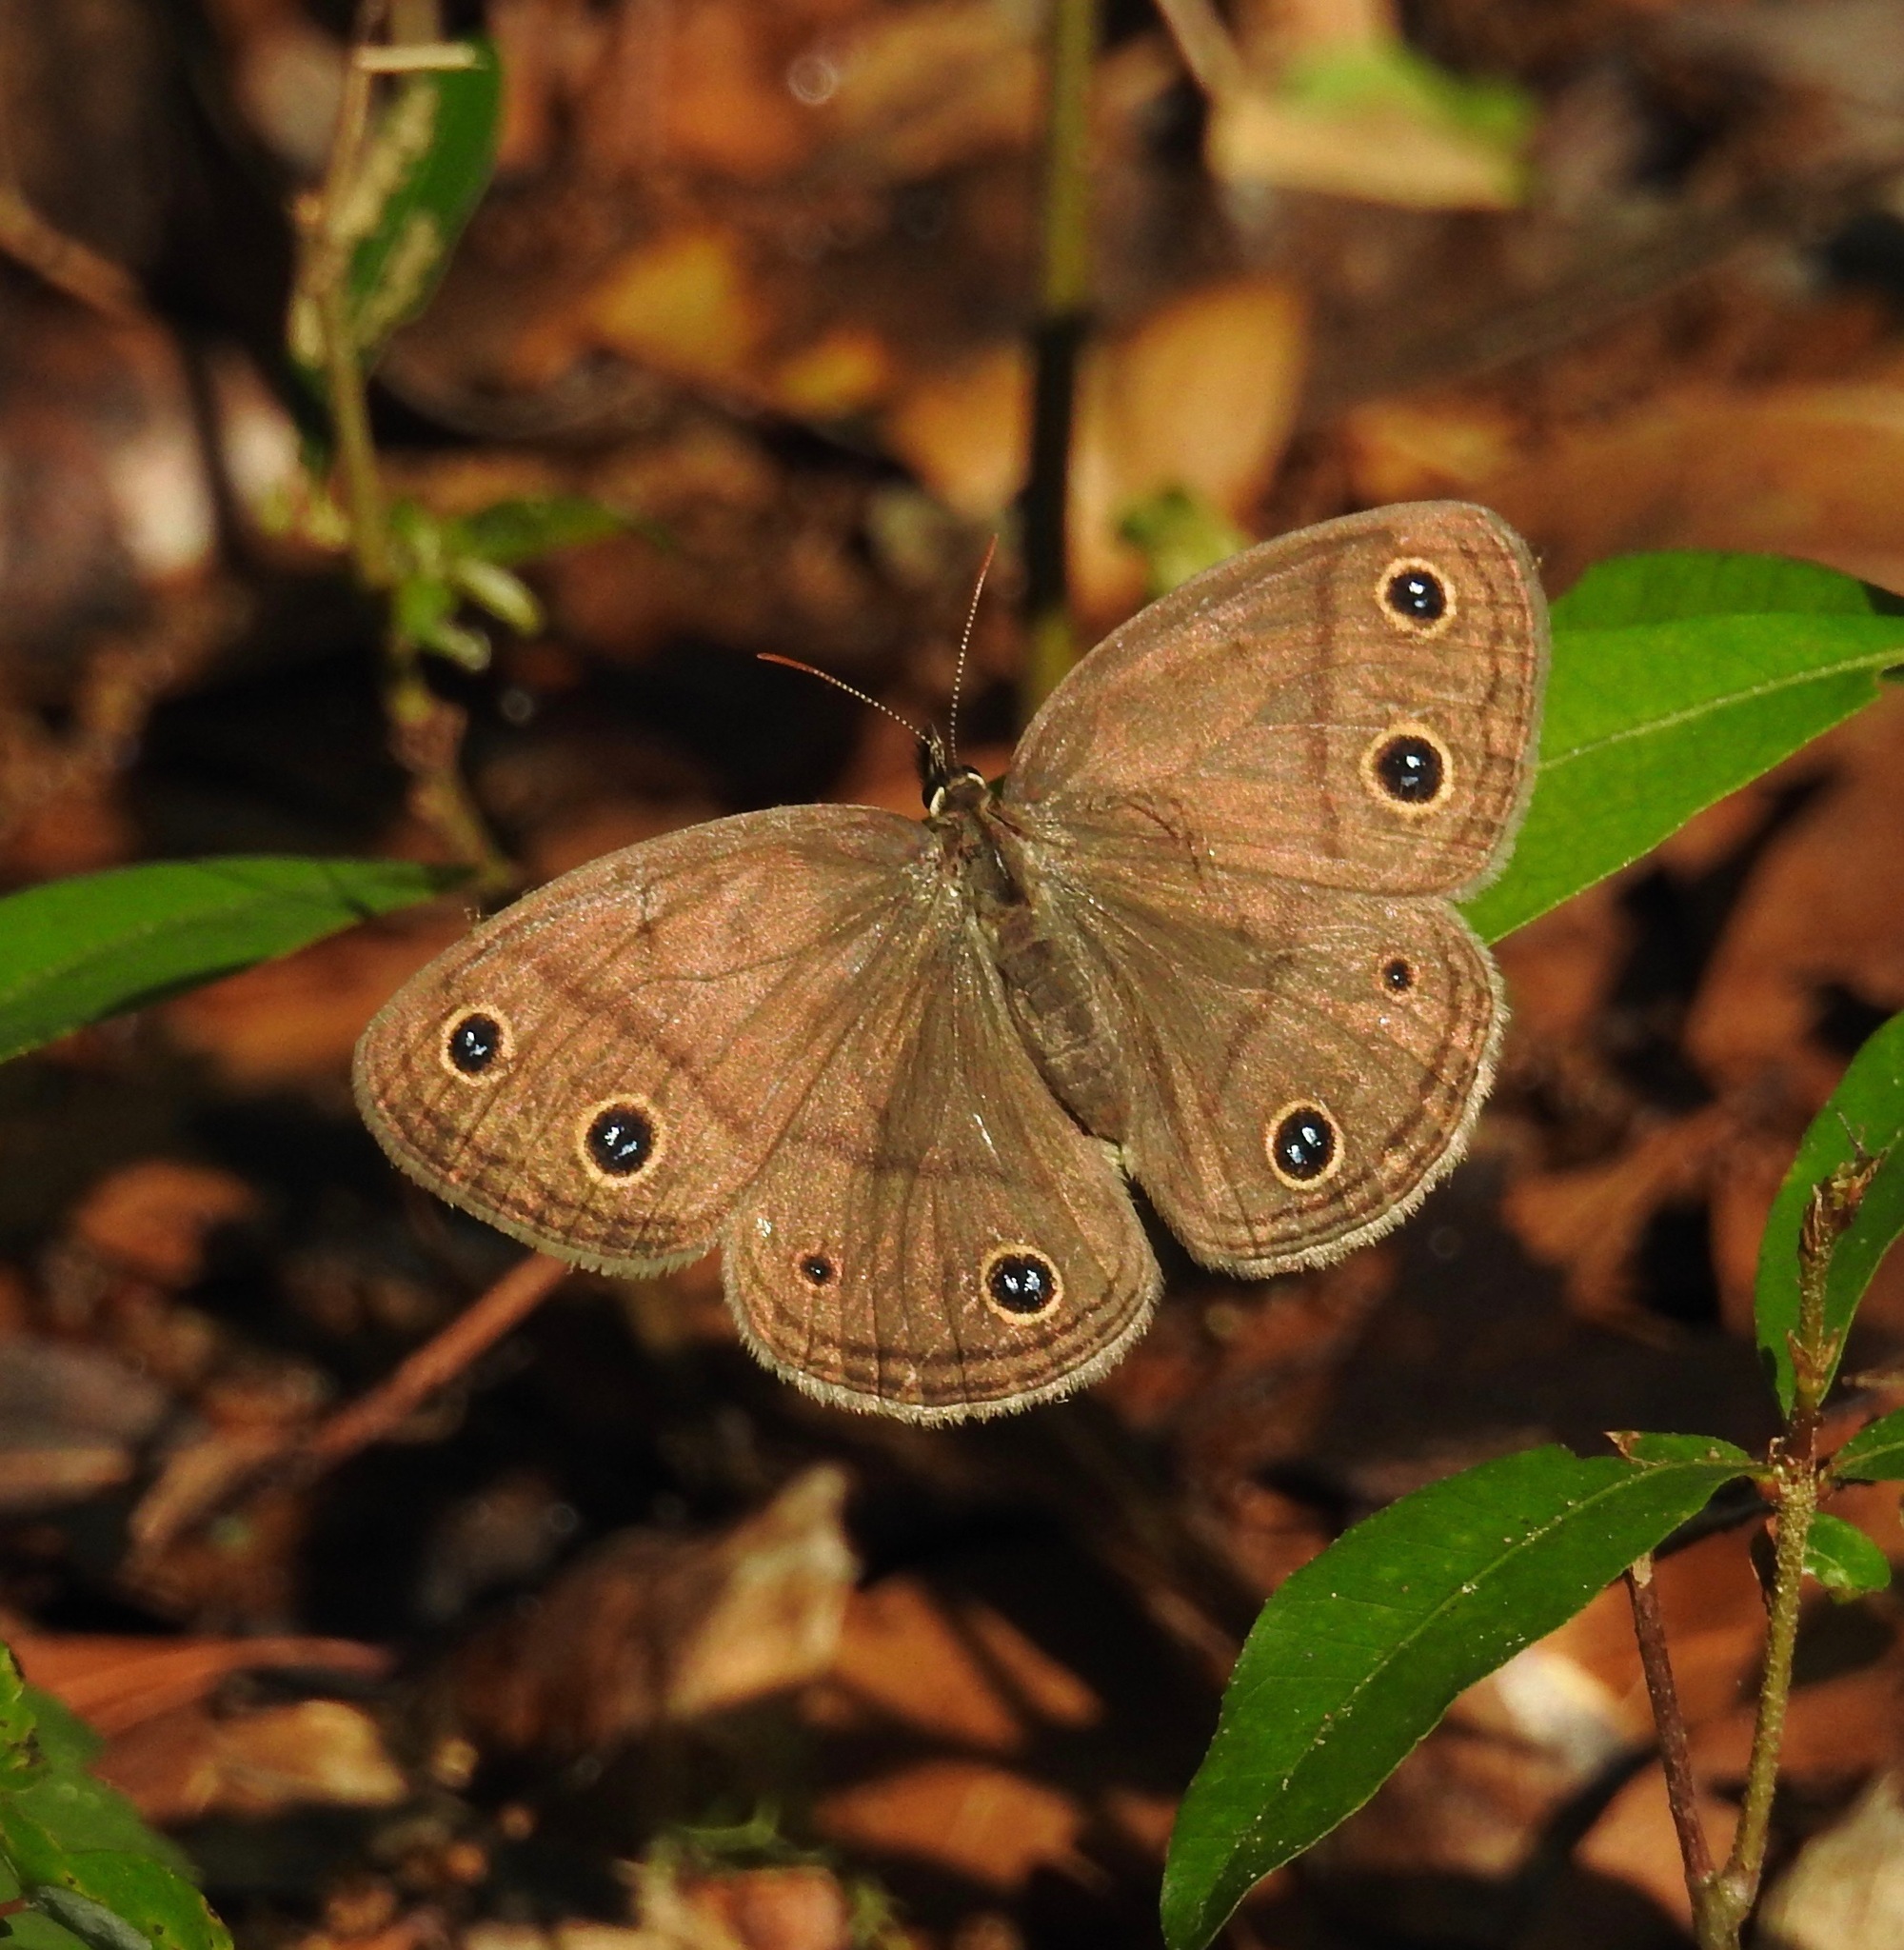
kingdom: Animalia
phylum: Arthropoda
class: Insecta
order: Lepidoptera
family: Nymphalidae
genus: Euptychia
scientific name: Euptychia cymela
